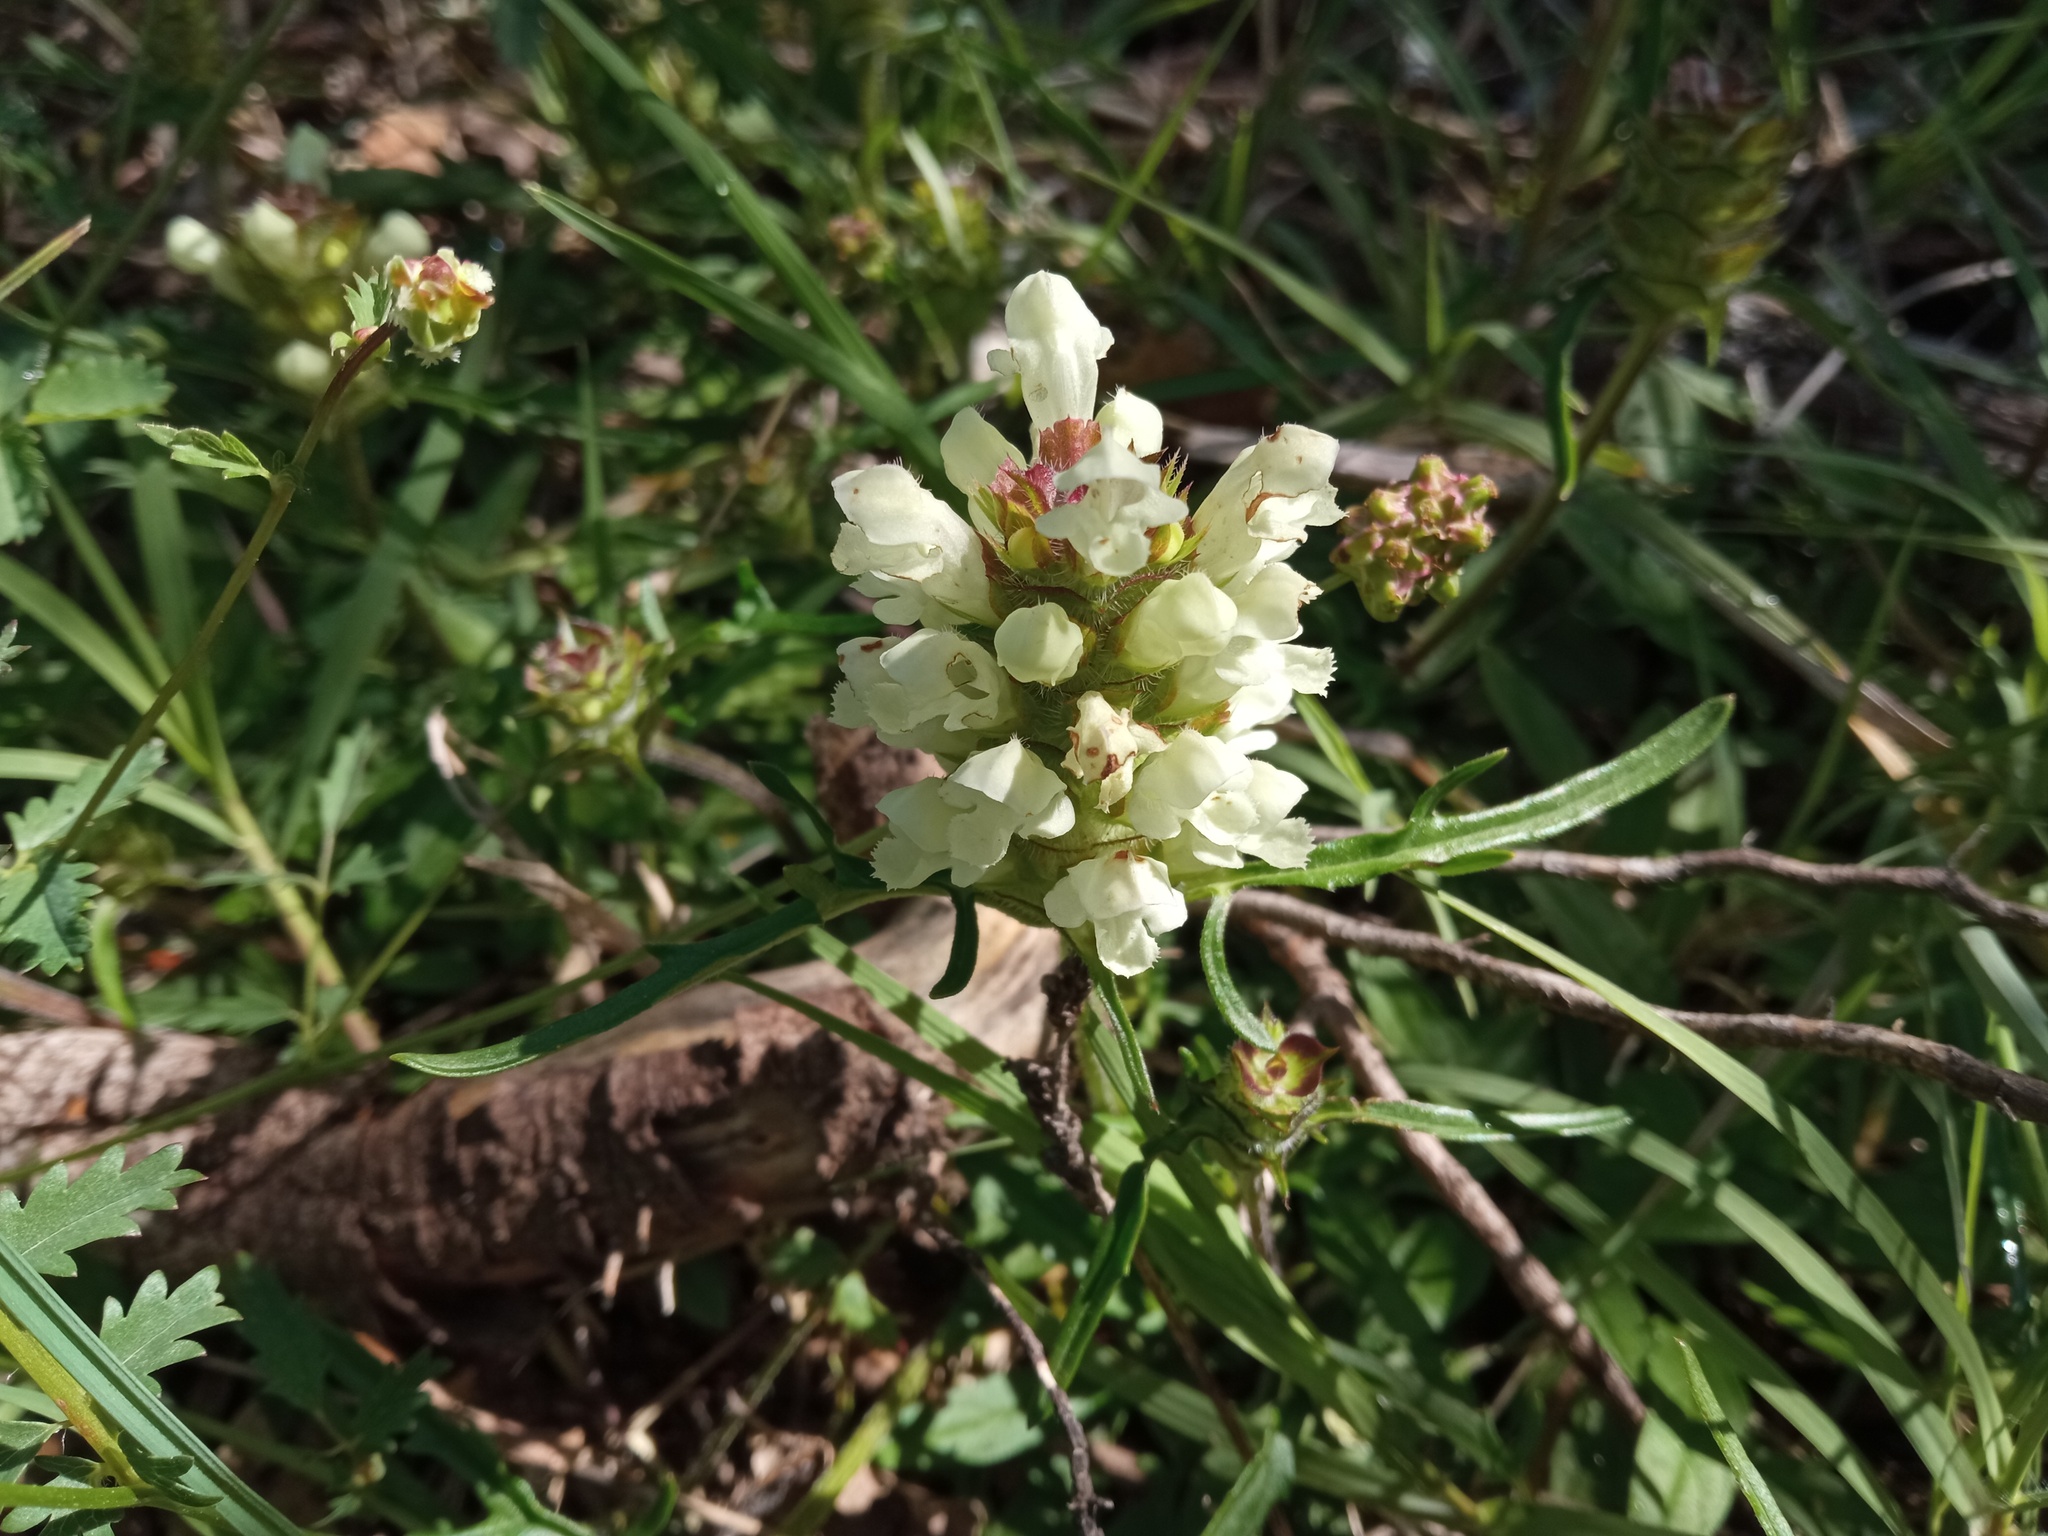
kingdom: Plantae
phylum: Tracheophyta
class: Magnoliopsida
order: Lamiales
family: Lamiaceae
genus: Prunella
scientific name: Prunella laciniata
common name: Cut-leaved selfheal
